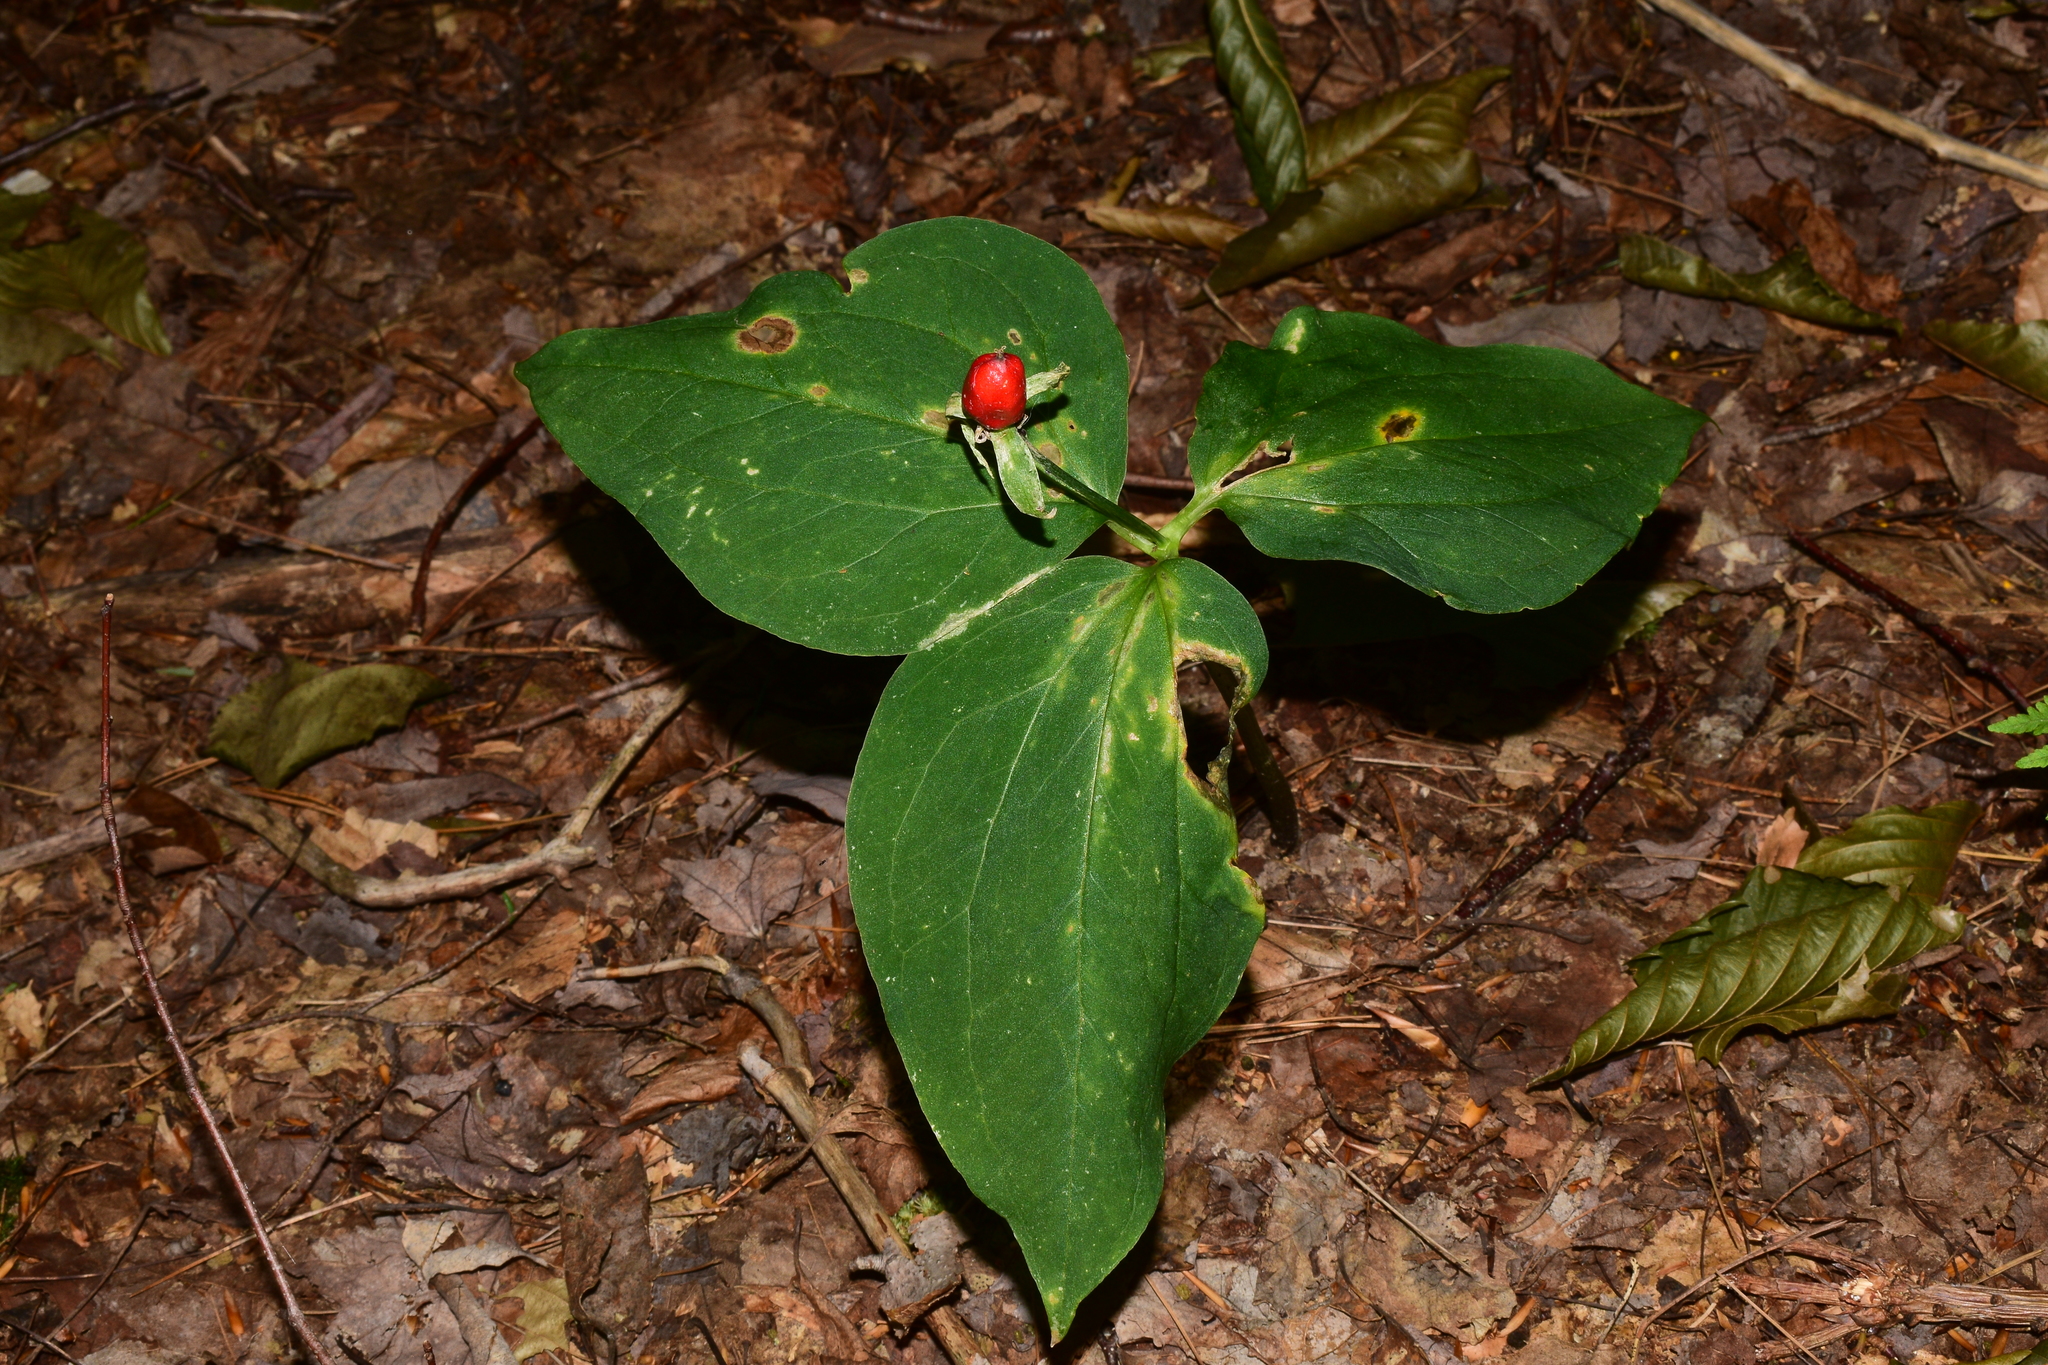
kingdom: Plantae
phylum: Tracheophyta
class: Liliopsida
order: Liliales
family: Melanthiaceae
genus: Trillium
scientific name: Trillium undulatum
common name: Paint trillium
